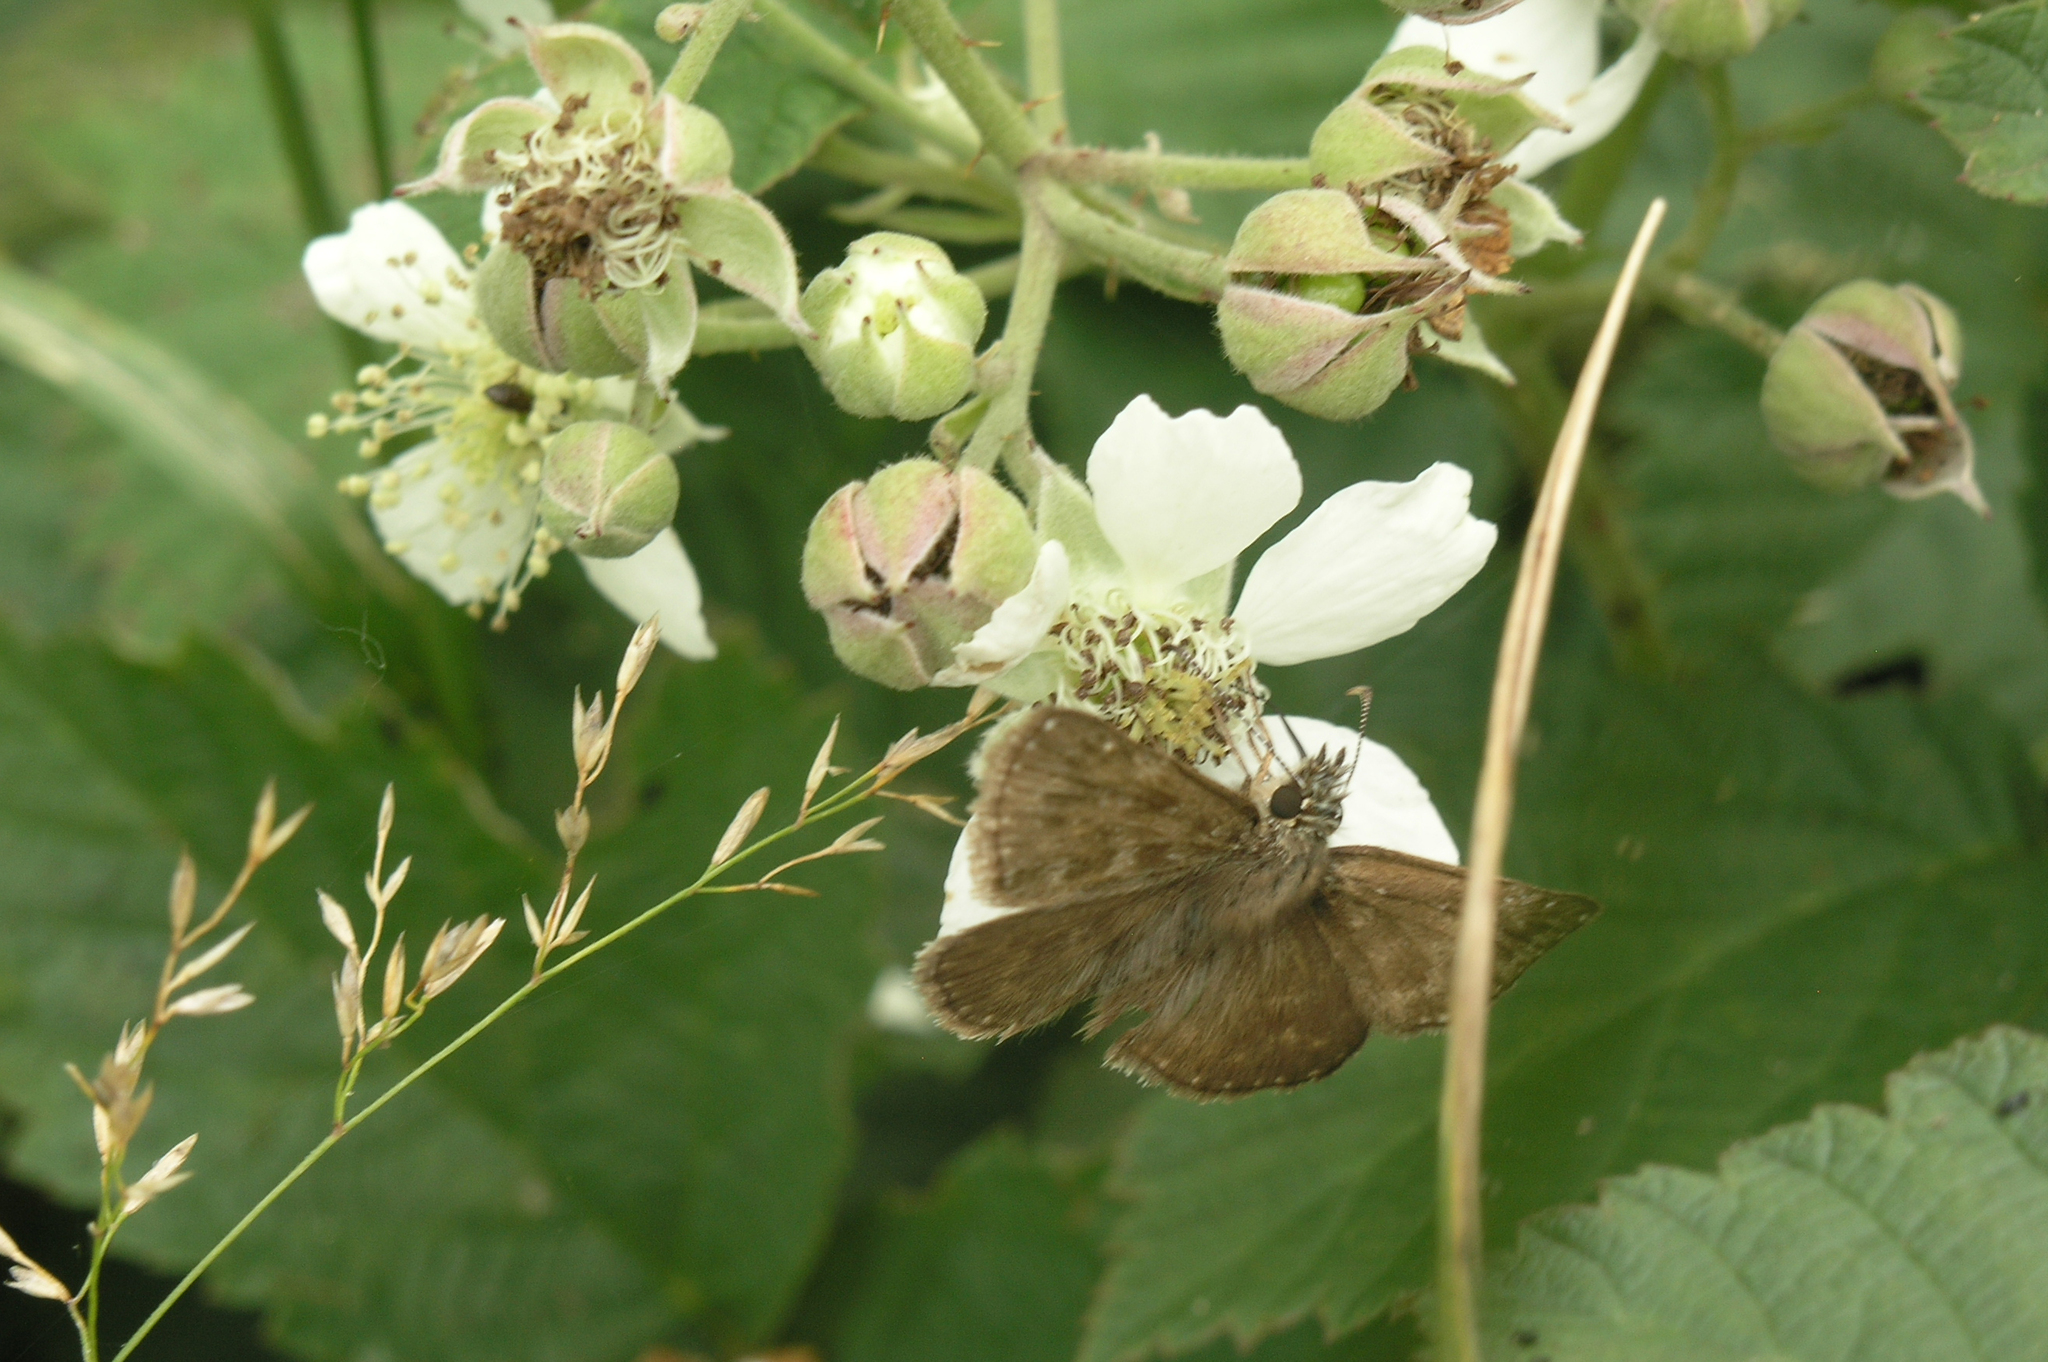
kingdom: Animalia
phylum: Arthropoda
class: Insecta
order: Lepidoptera
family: Hesperiidae
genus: Erynnis
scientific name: Erynnis tages
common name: Dingy skipper
